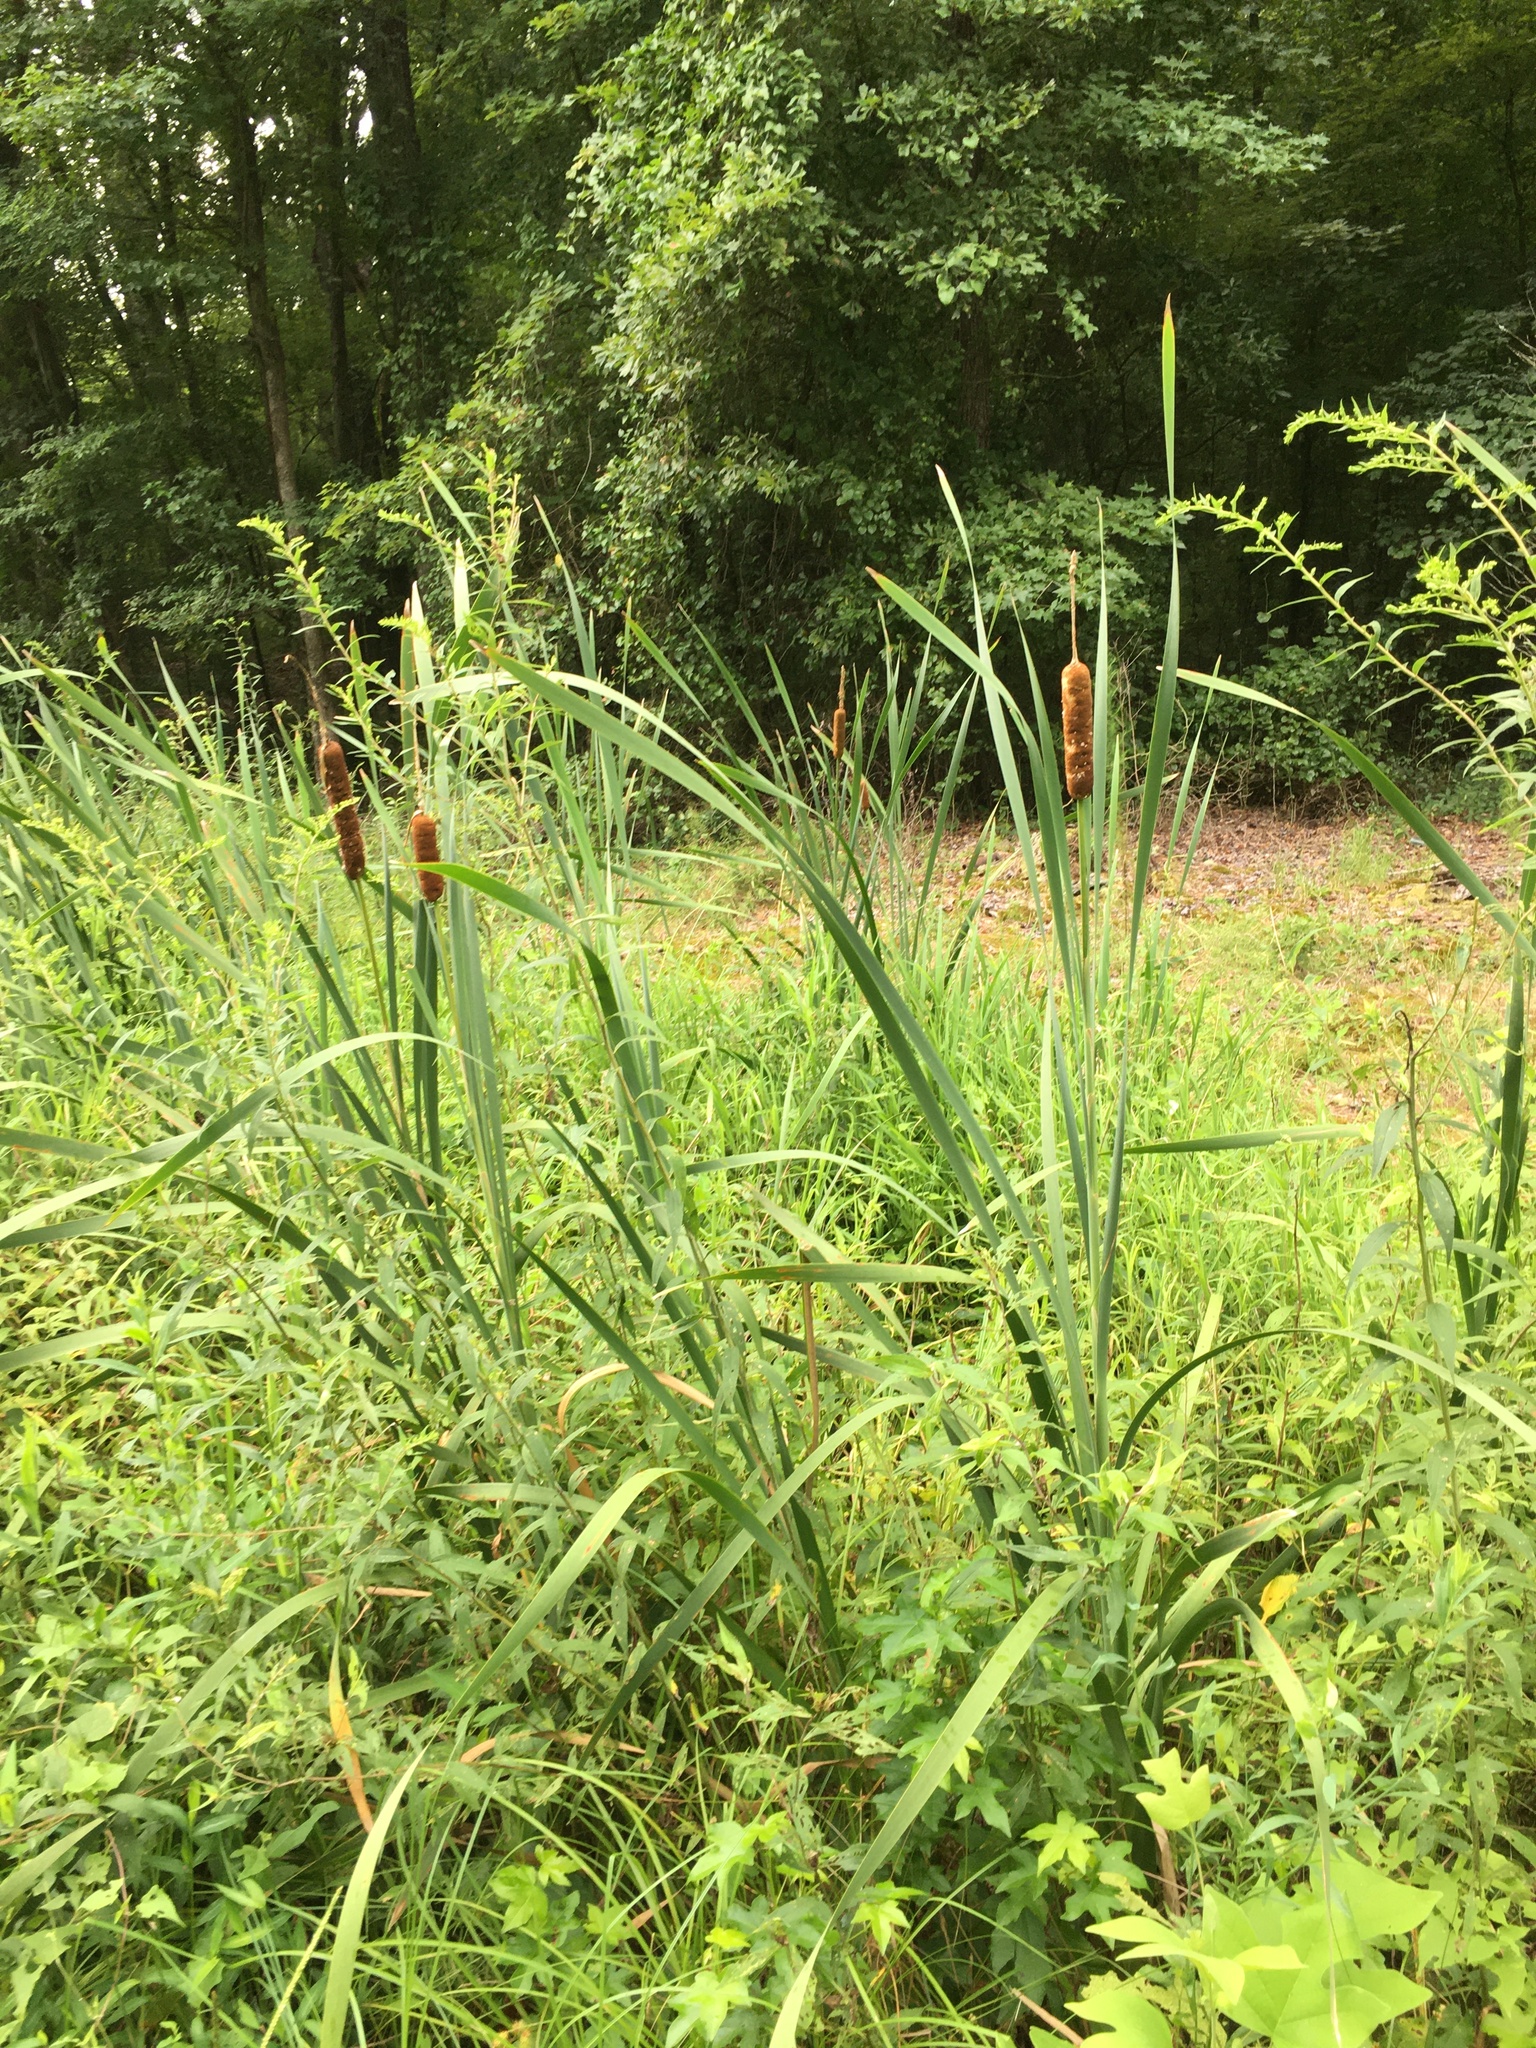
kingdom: Plantae
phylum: Tracheophyta
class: Liliopsida
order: Poales
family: Typhaceae
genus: Typha
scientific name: Typha latifolia
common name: Broadleaf cattail
